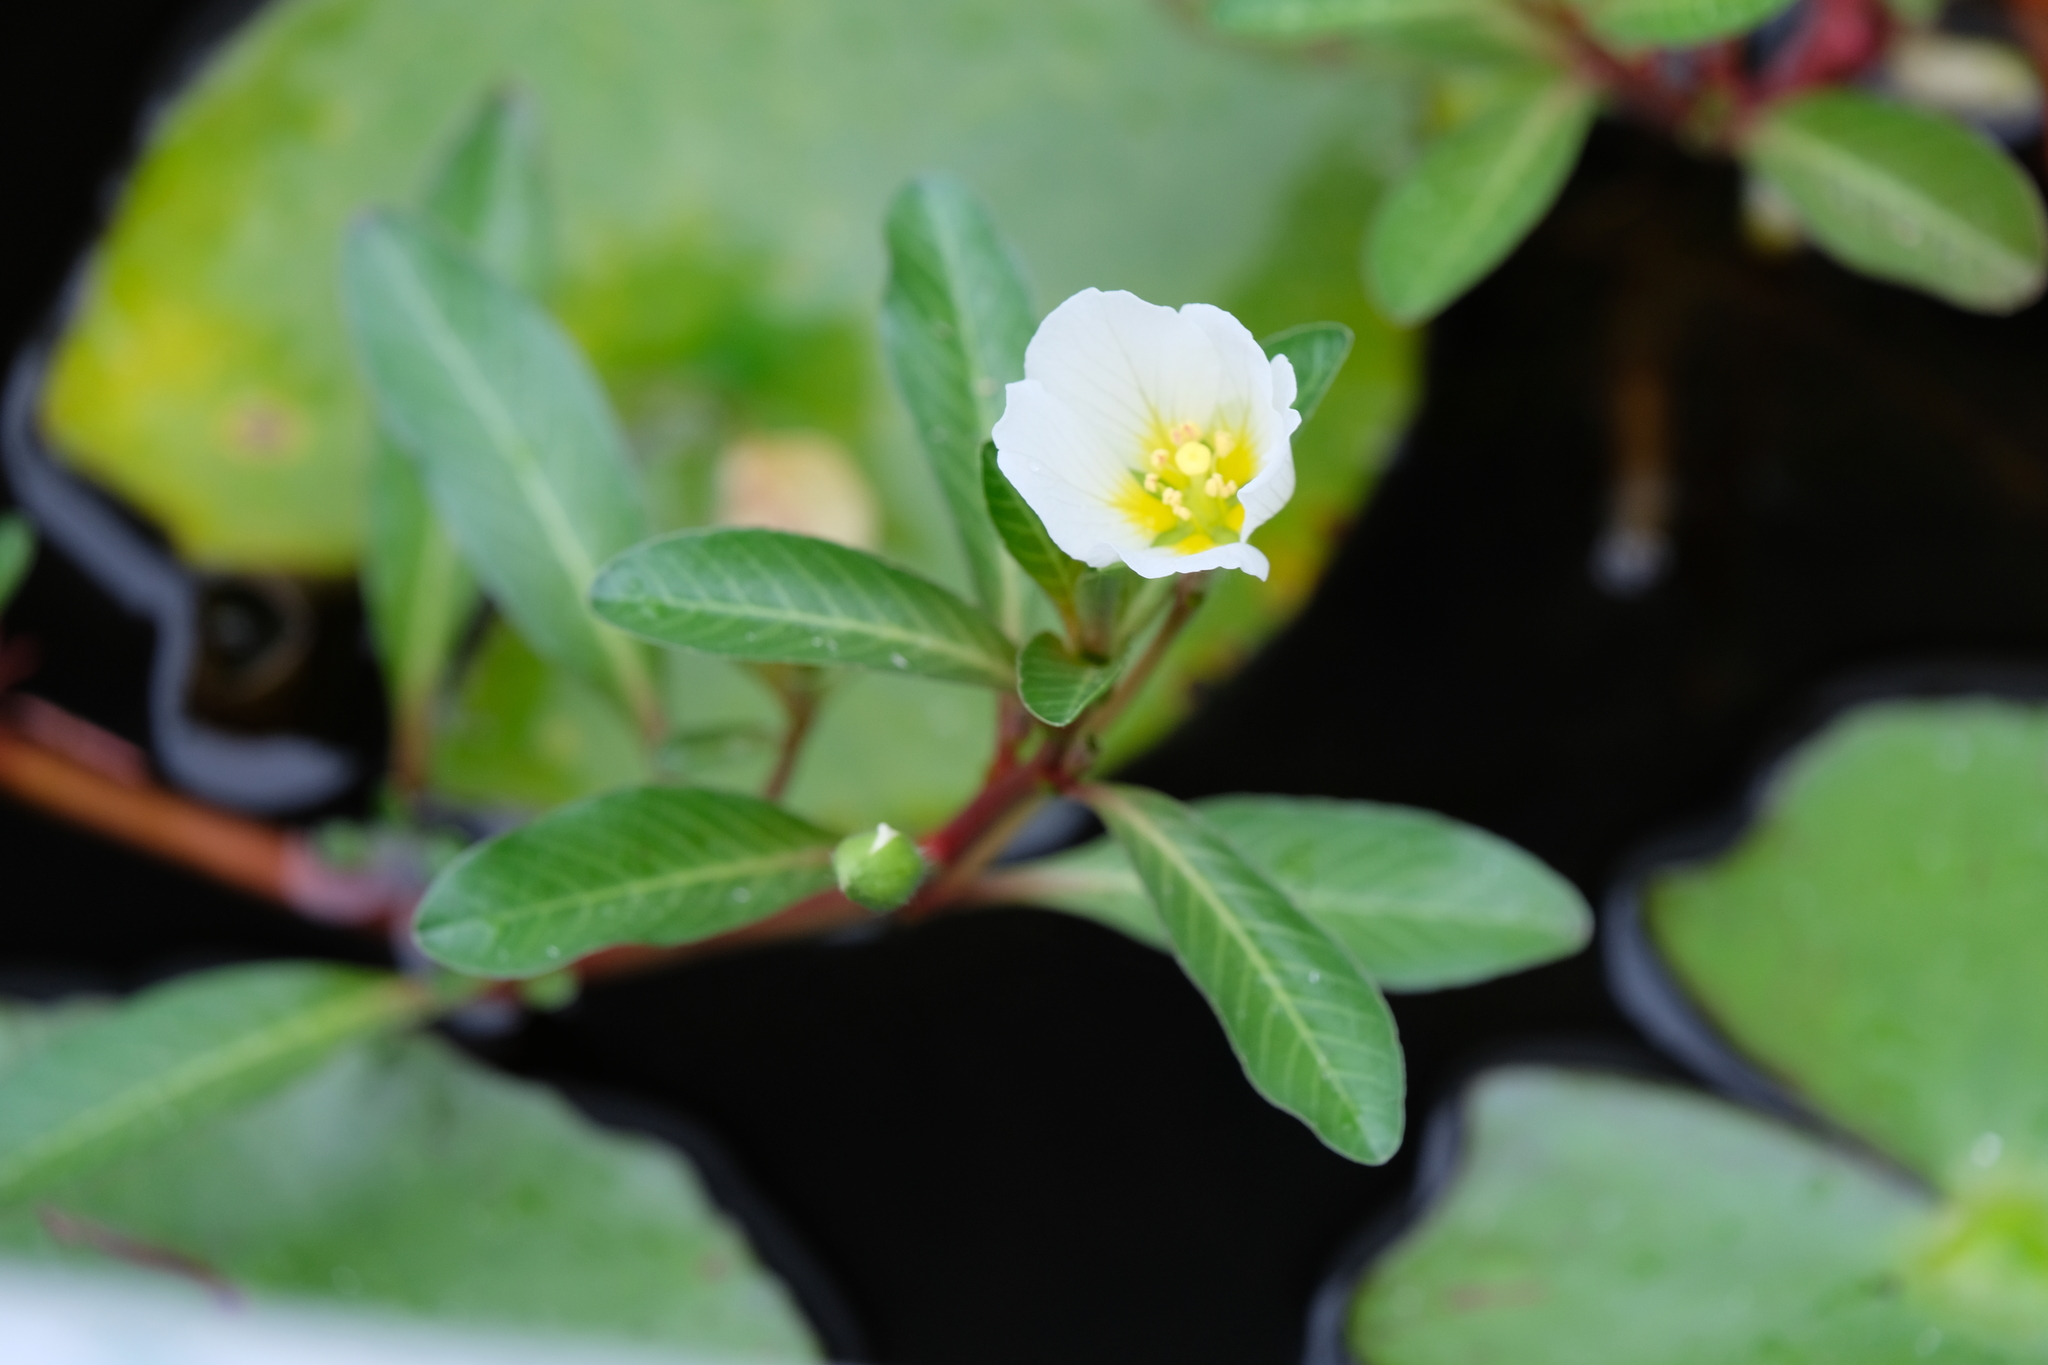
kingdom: Plantae
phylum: Tracheophyta
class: Magnoliopsida
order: Myrtales
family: Onagraceae
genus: Ludwigia
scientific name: Ludwigia adscendens
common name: Creeping water primrose
